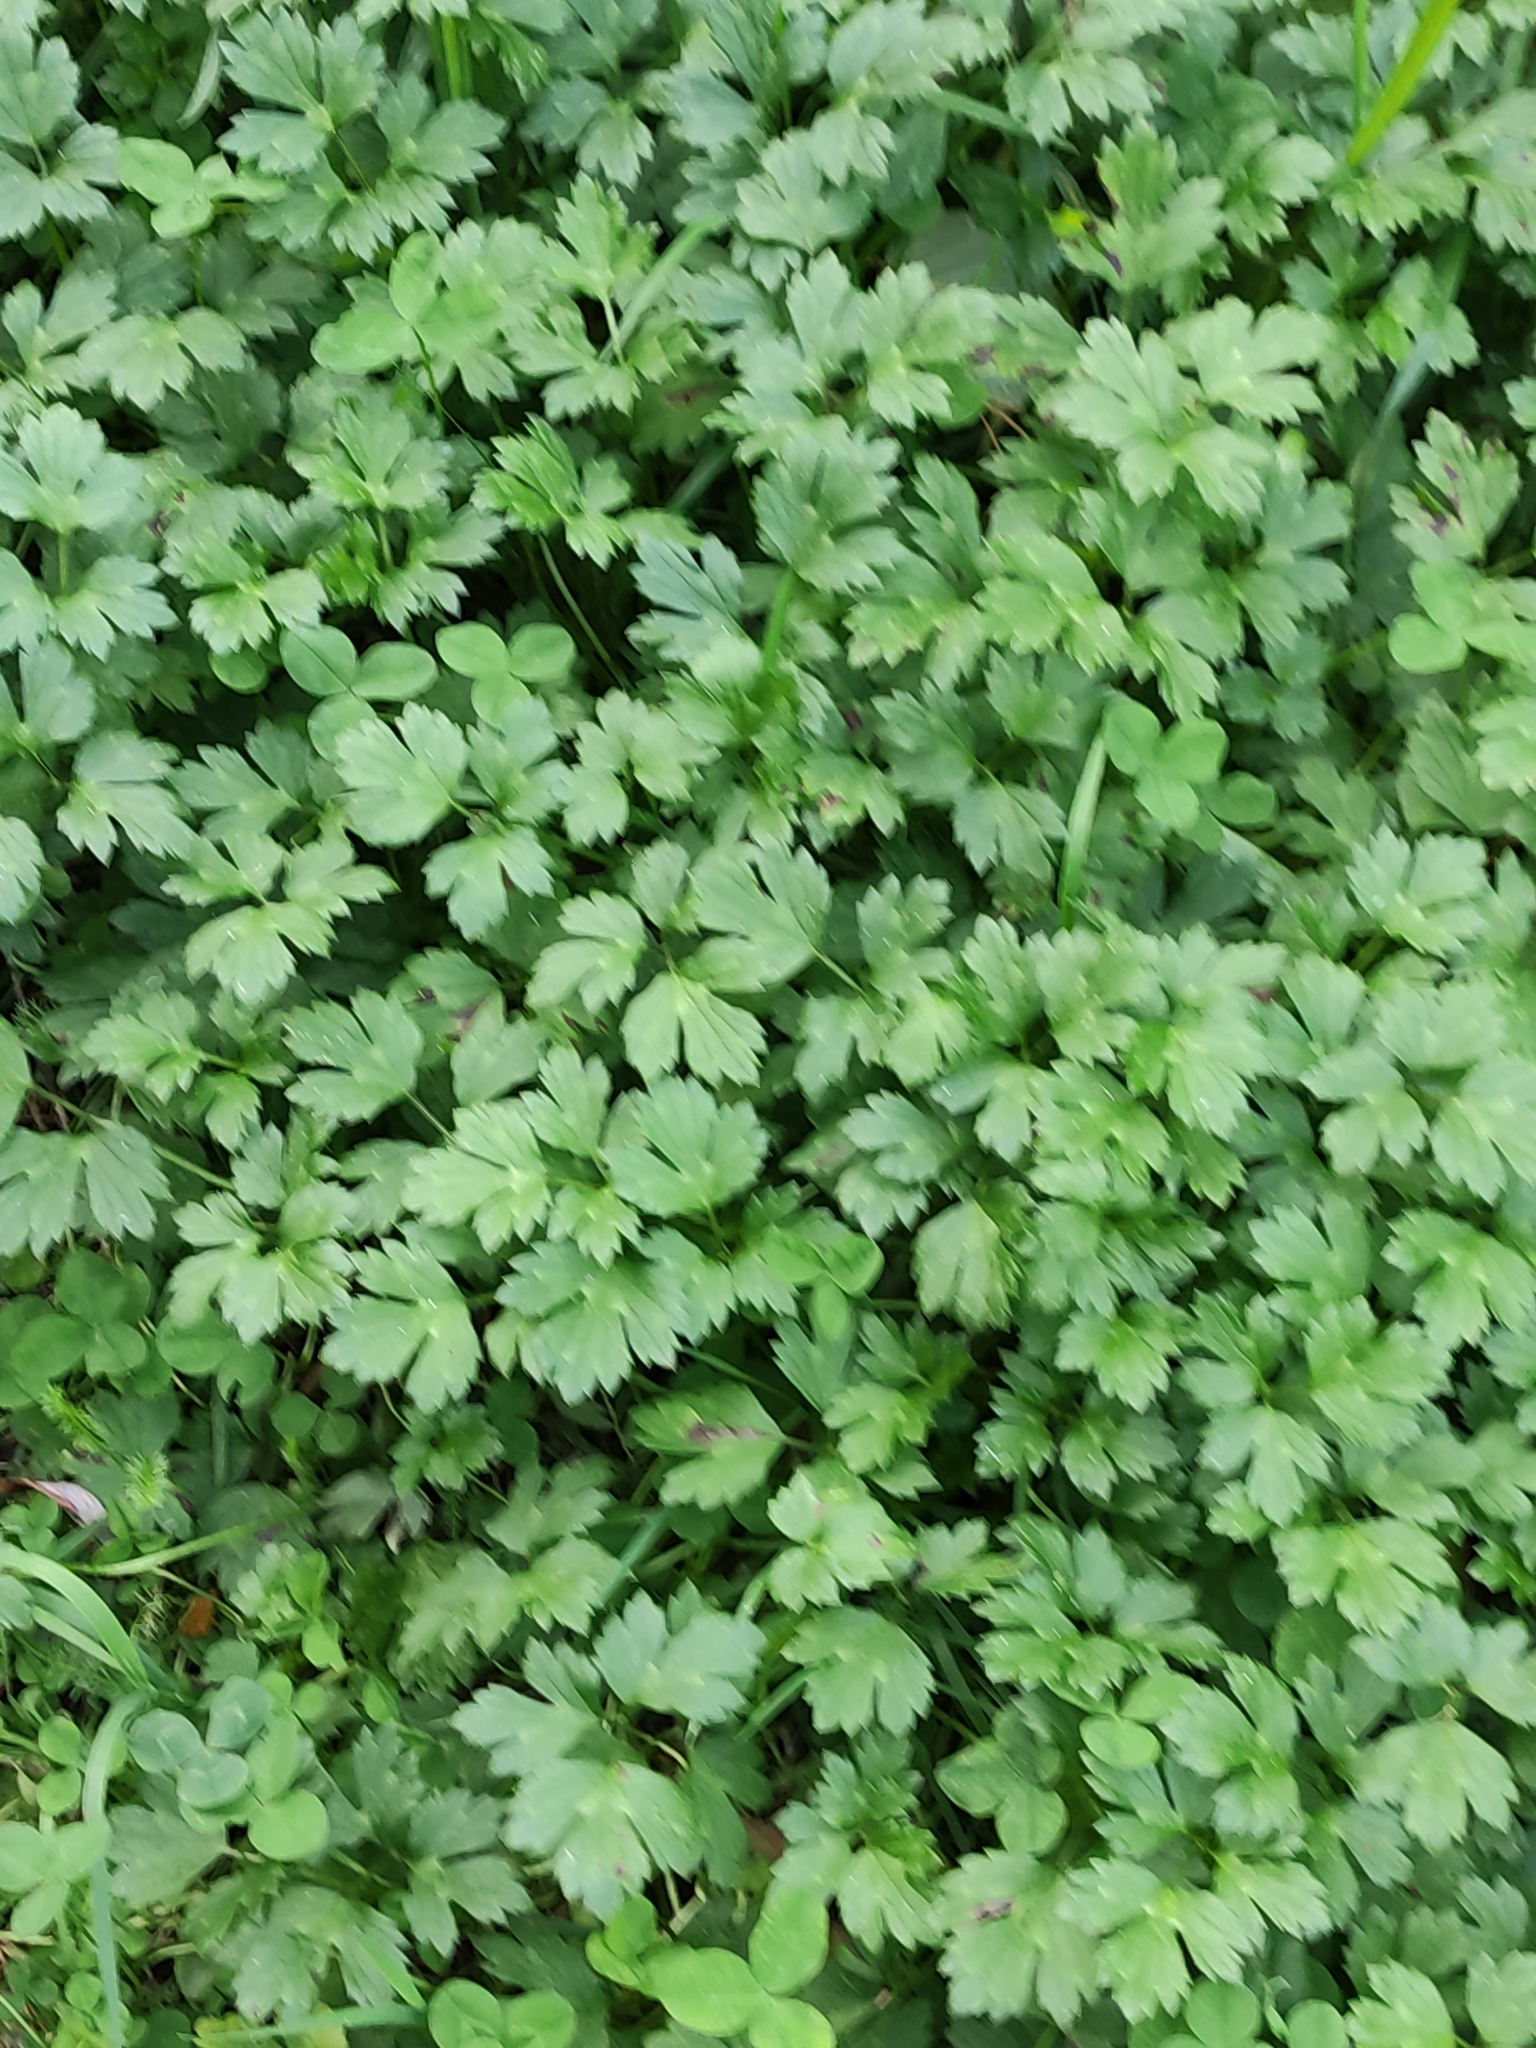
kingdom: Plantae
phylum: Tracheophyta
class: Magnoliopsida
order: Ranunculales
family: Ranunculaceae
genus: Ranunculus
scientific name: Ranunculus repens
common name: Creeping buttercup
